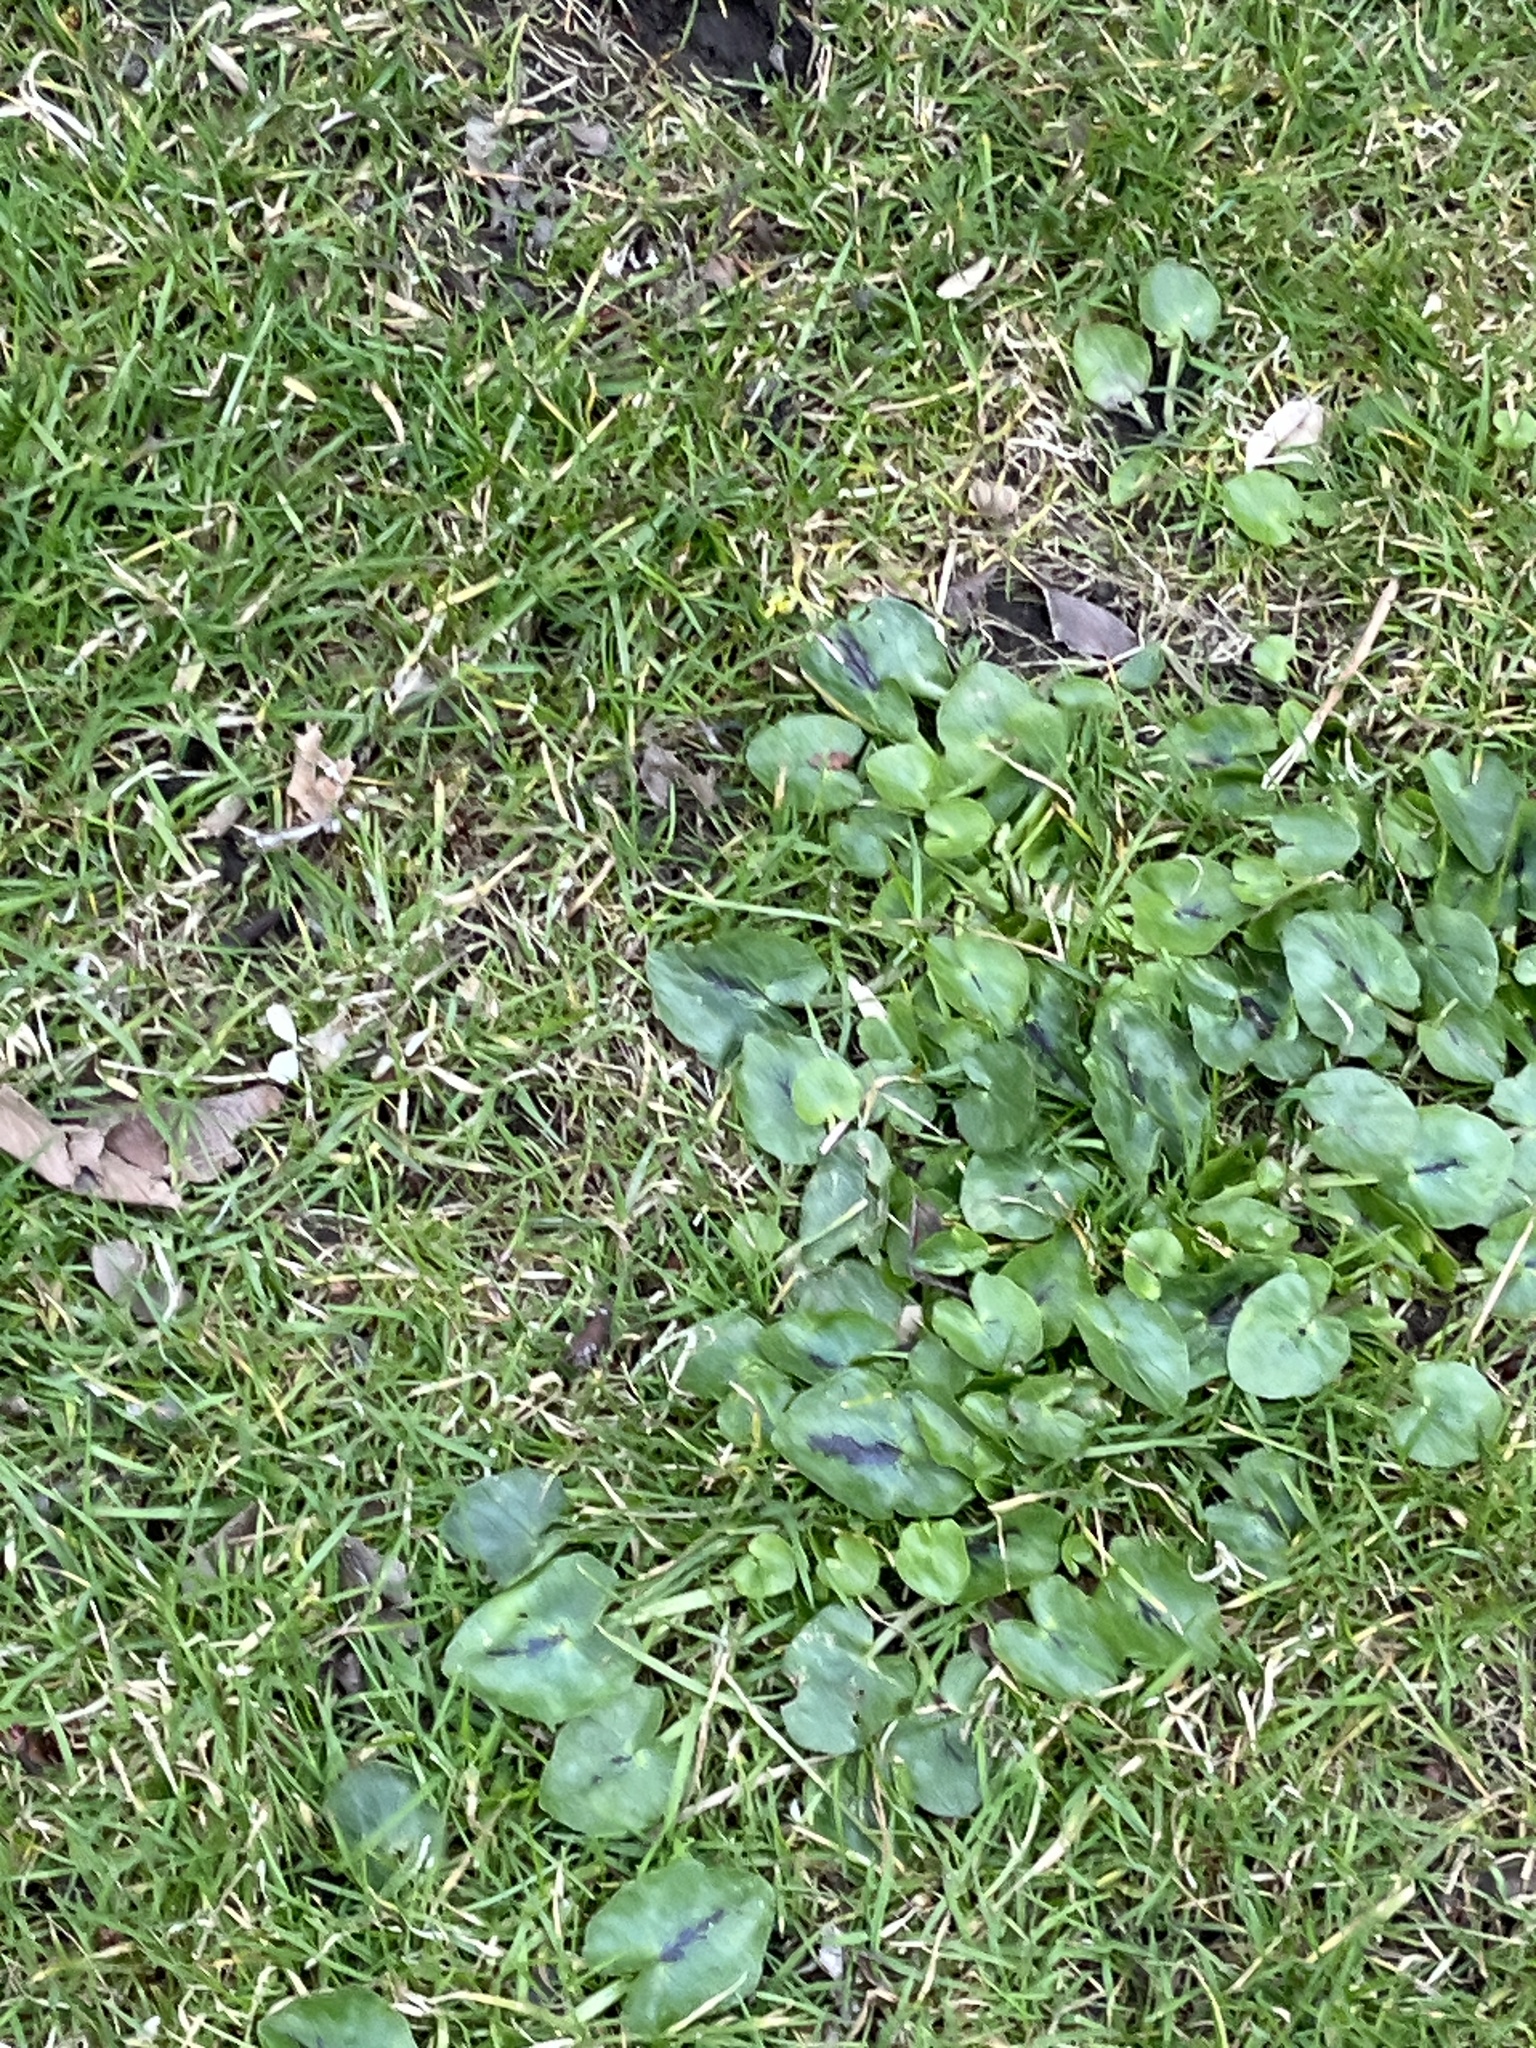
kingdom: Plantae
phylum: Tracheophyta
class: Magnoliopsida
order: Ranunculales
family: Ranunculaceae
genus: Ficaria
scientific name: Ficaria verna
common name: Lesser celandine
